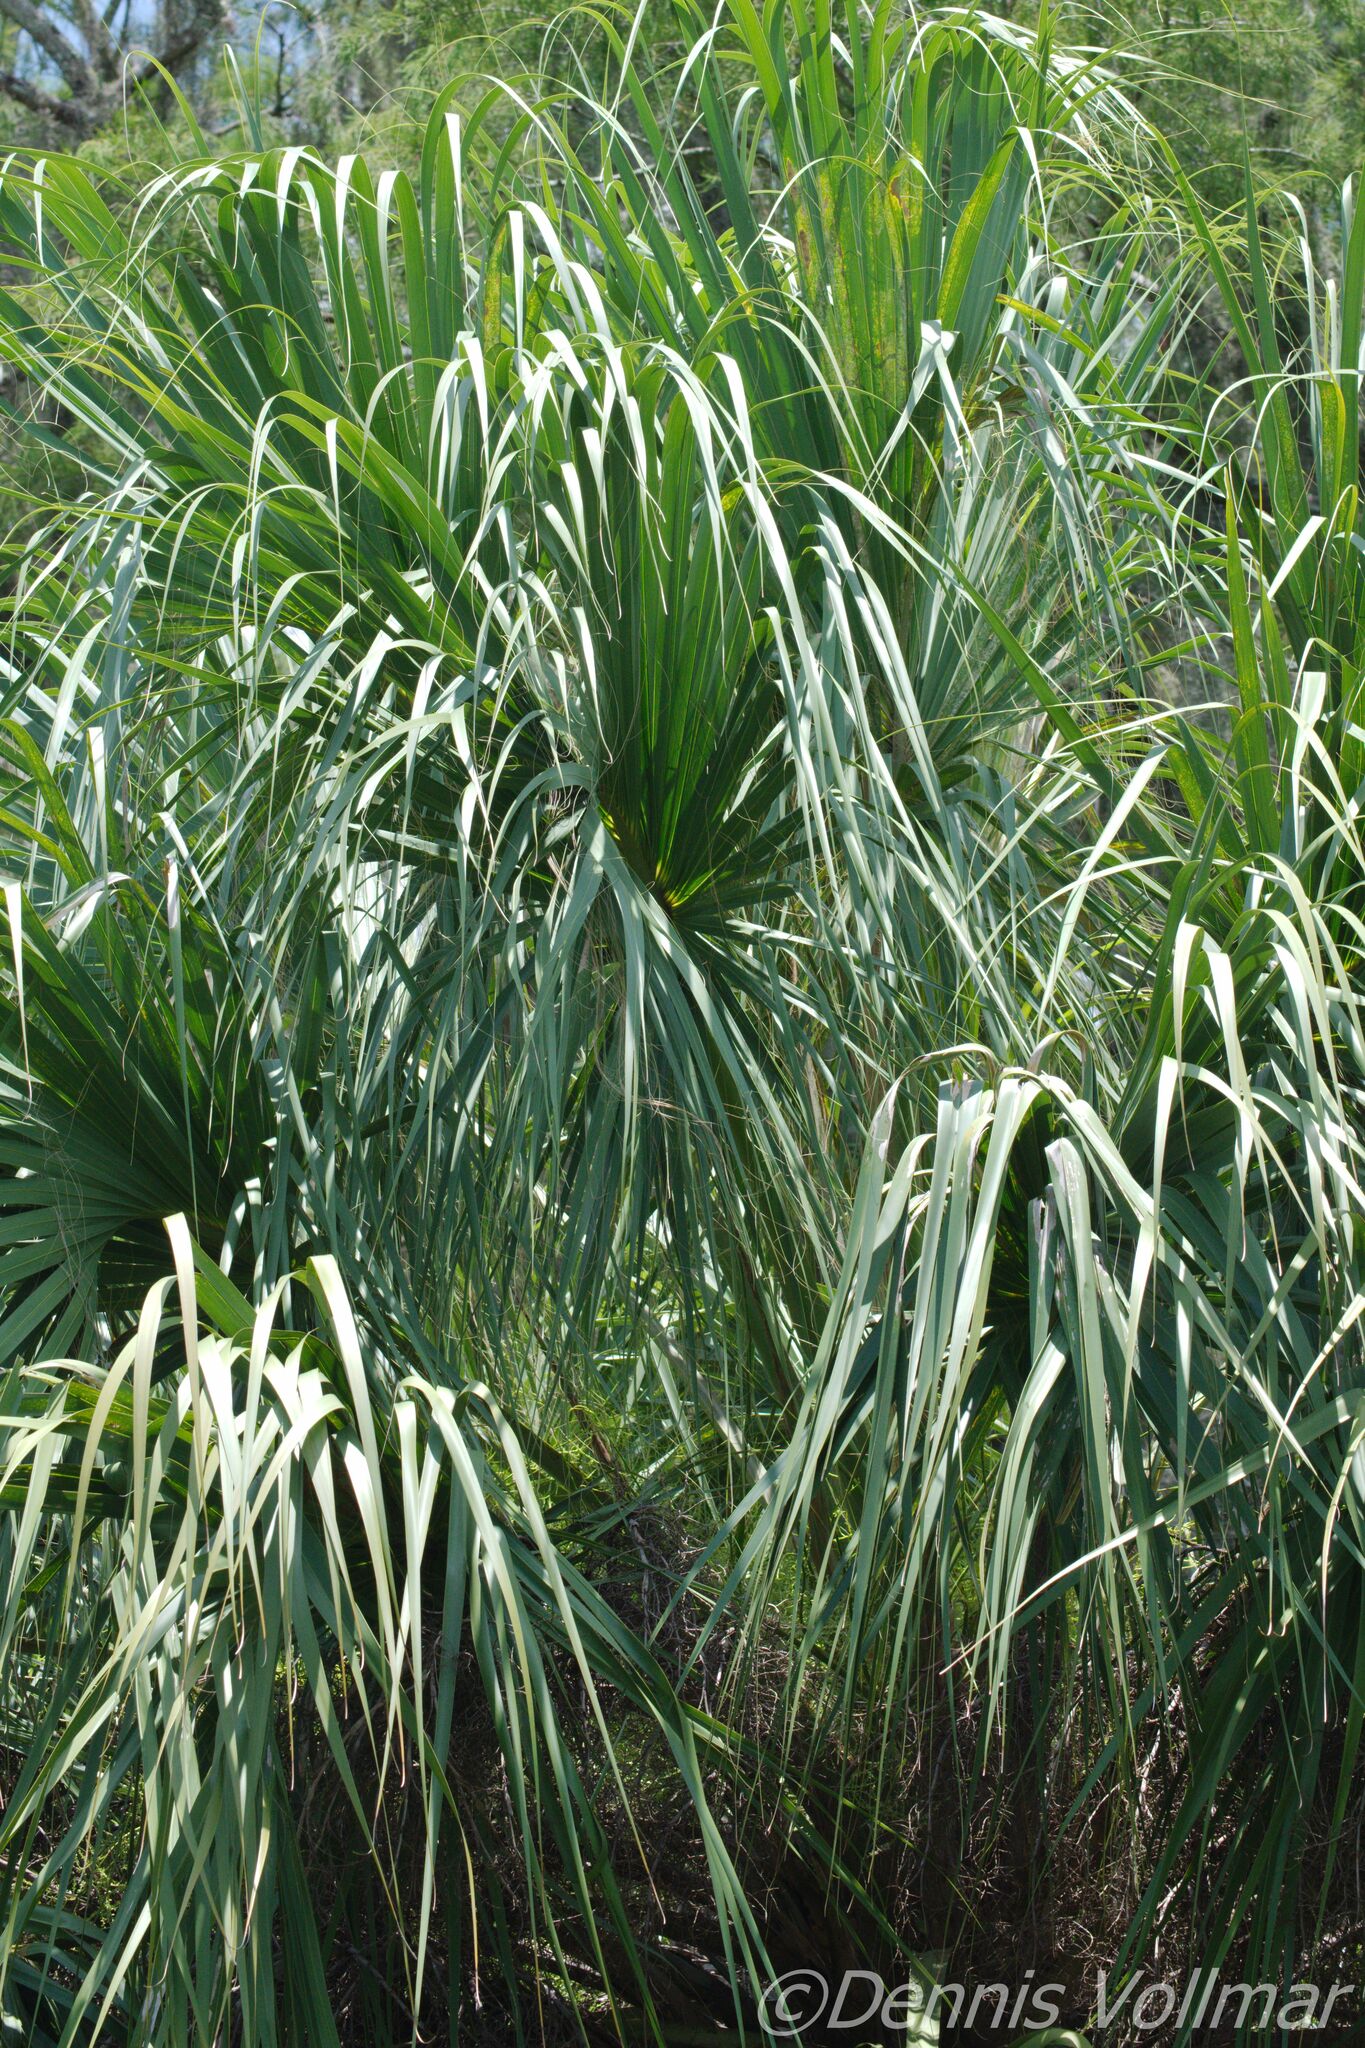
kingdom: Plantae
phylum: Tracheophyta
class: Liliopsida
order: Arecales
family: Arecaceae
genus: Sabal
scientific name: Sabal palmetto
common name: Blue palmetto
